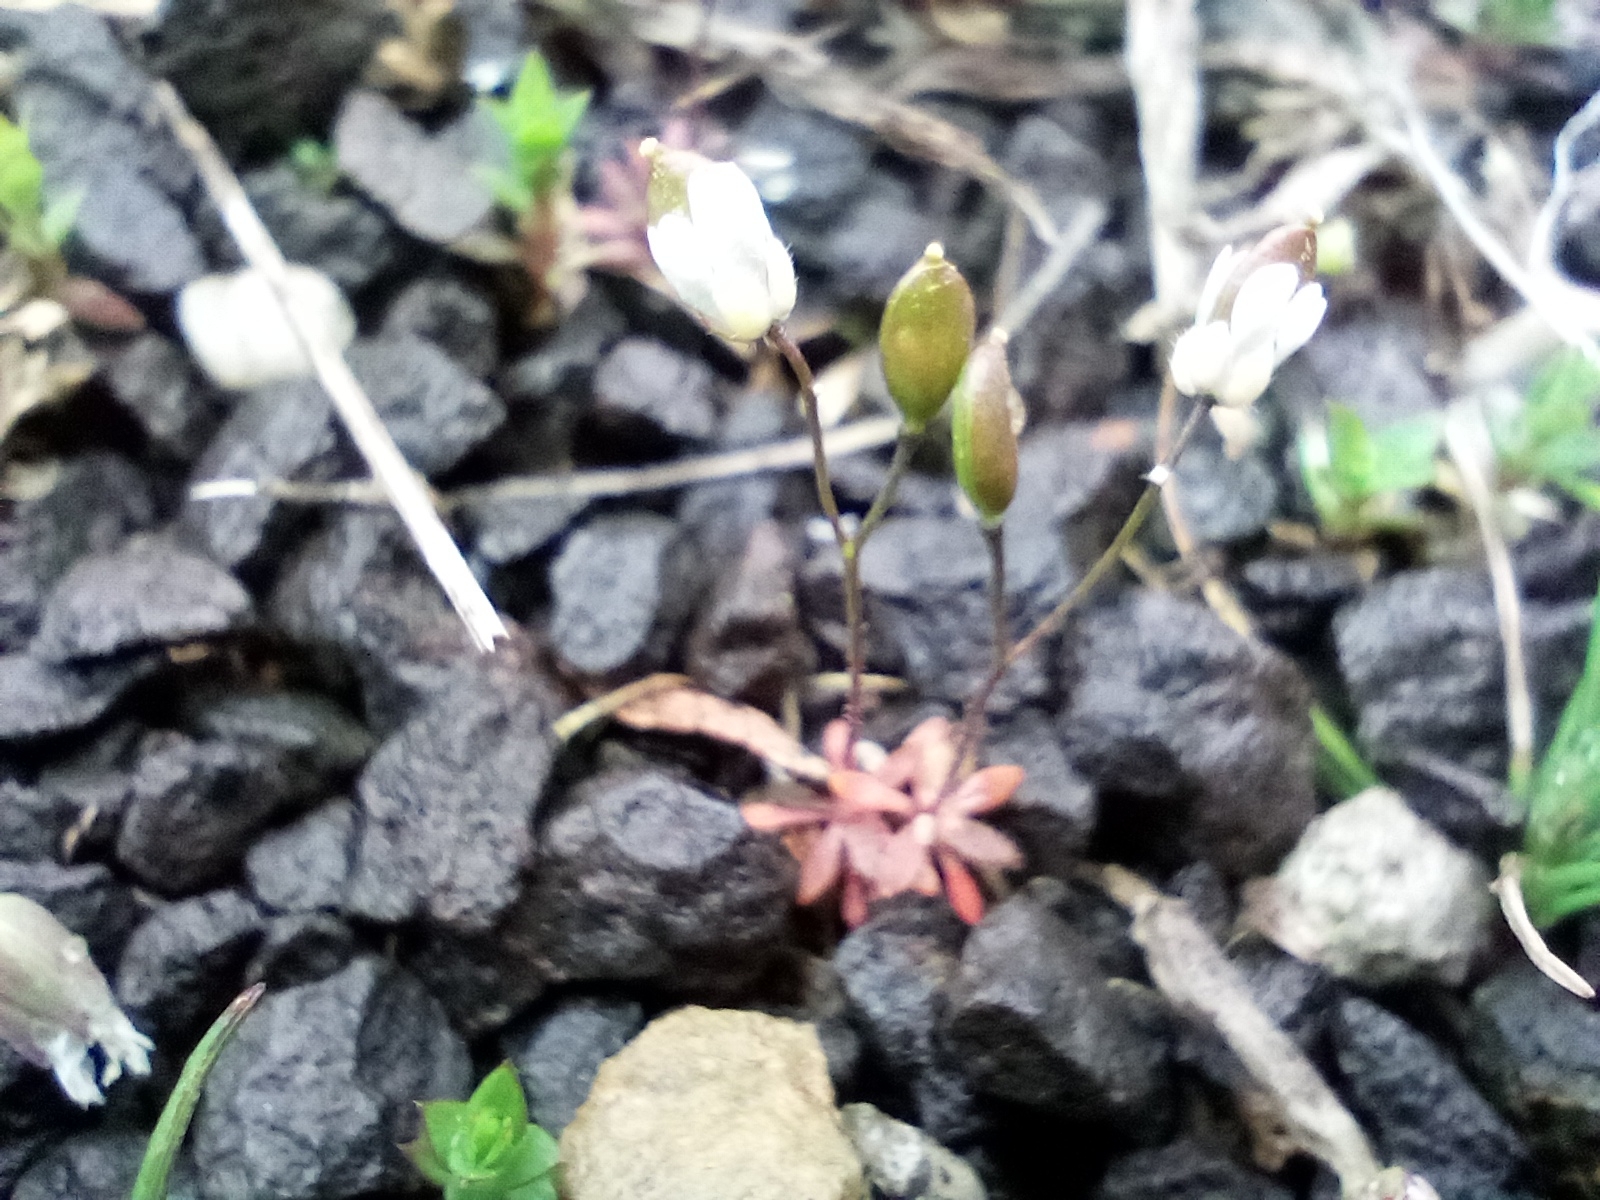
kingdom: Plantae
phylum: Tracheophyta
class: Magnoliopsida
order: Brassicales
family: Brassicaceae
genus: Draba
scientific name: Draba verna
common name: Spring draba
